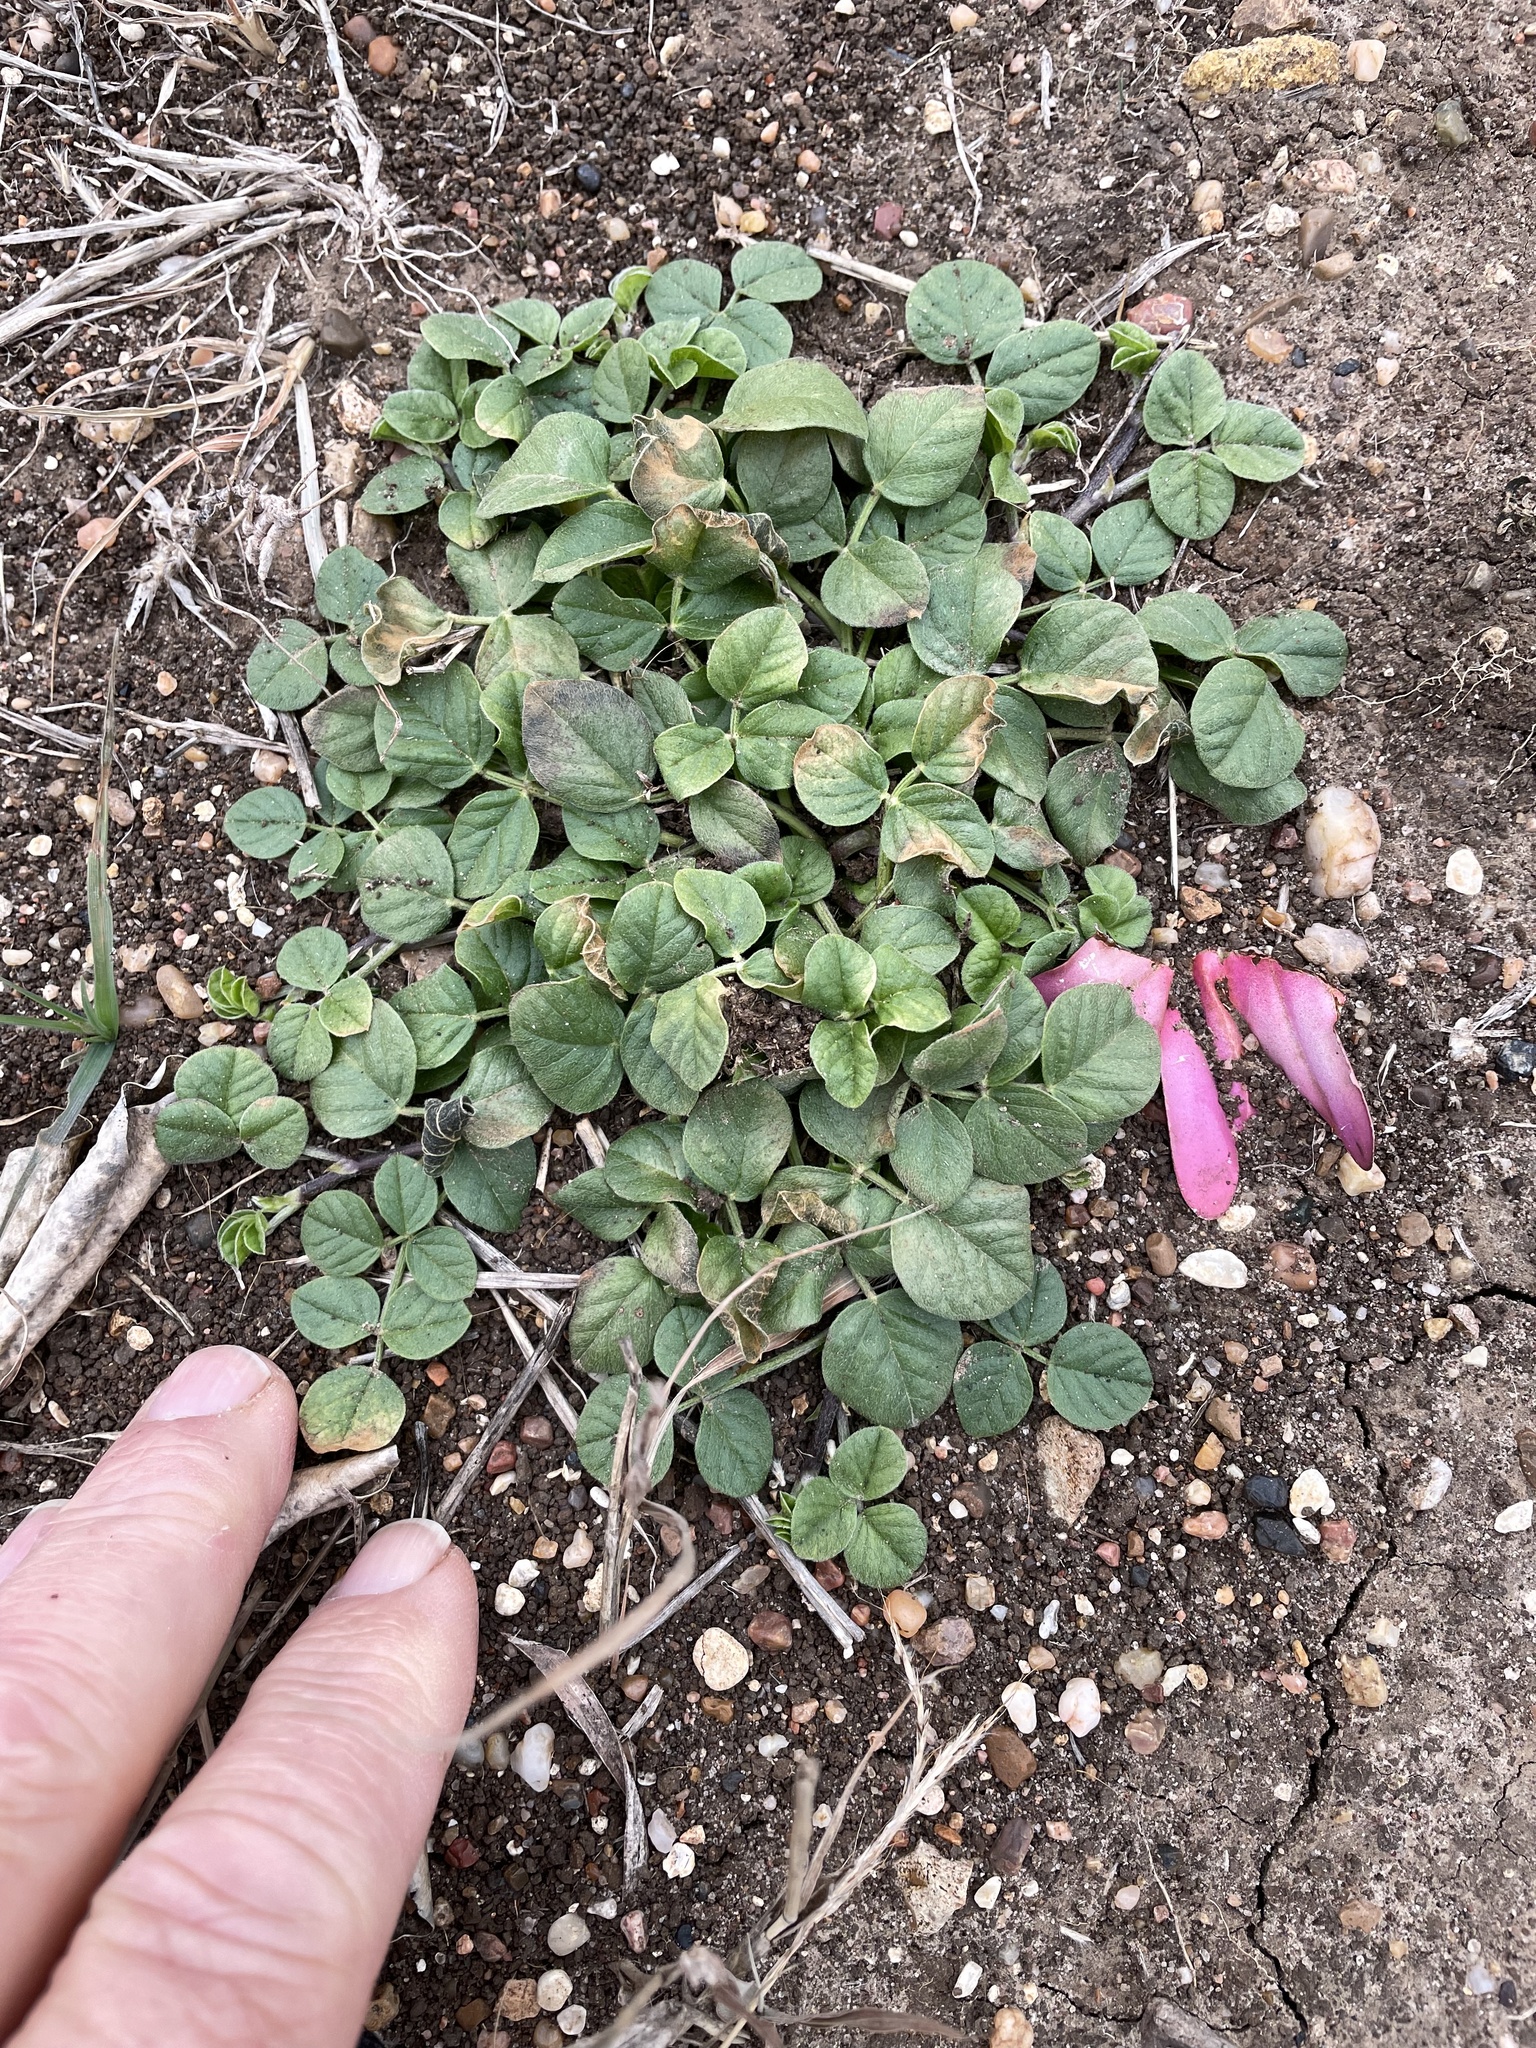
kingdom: Plantae
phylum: Tracheophyta
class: Magnoliopsida
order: Fabales
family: Fabaceae
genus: Pediomelum
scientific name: Pediomelum rhombifolium
